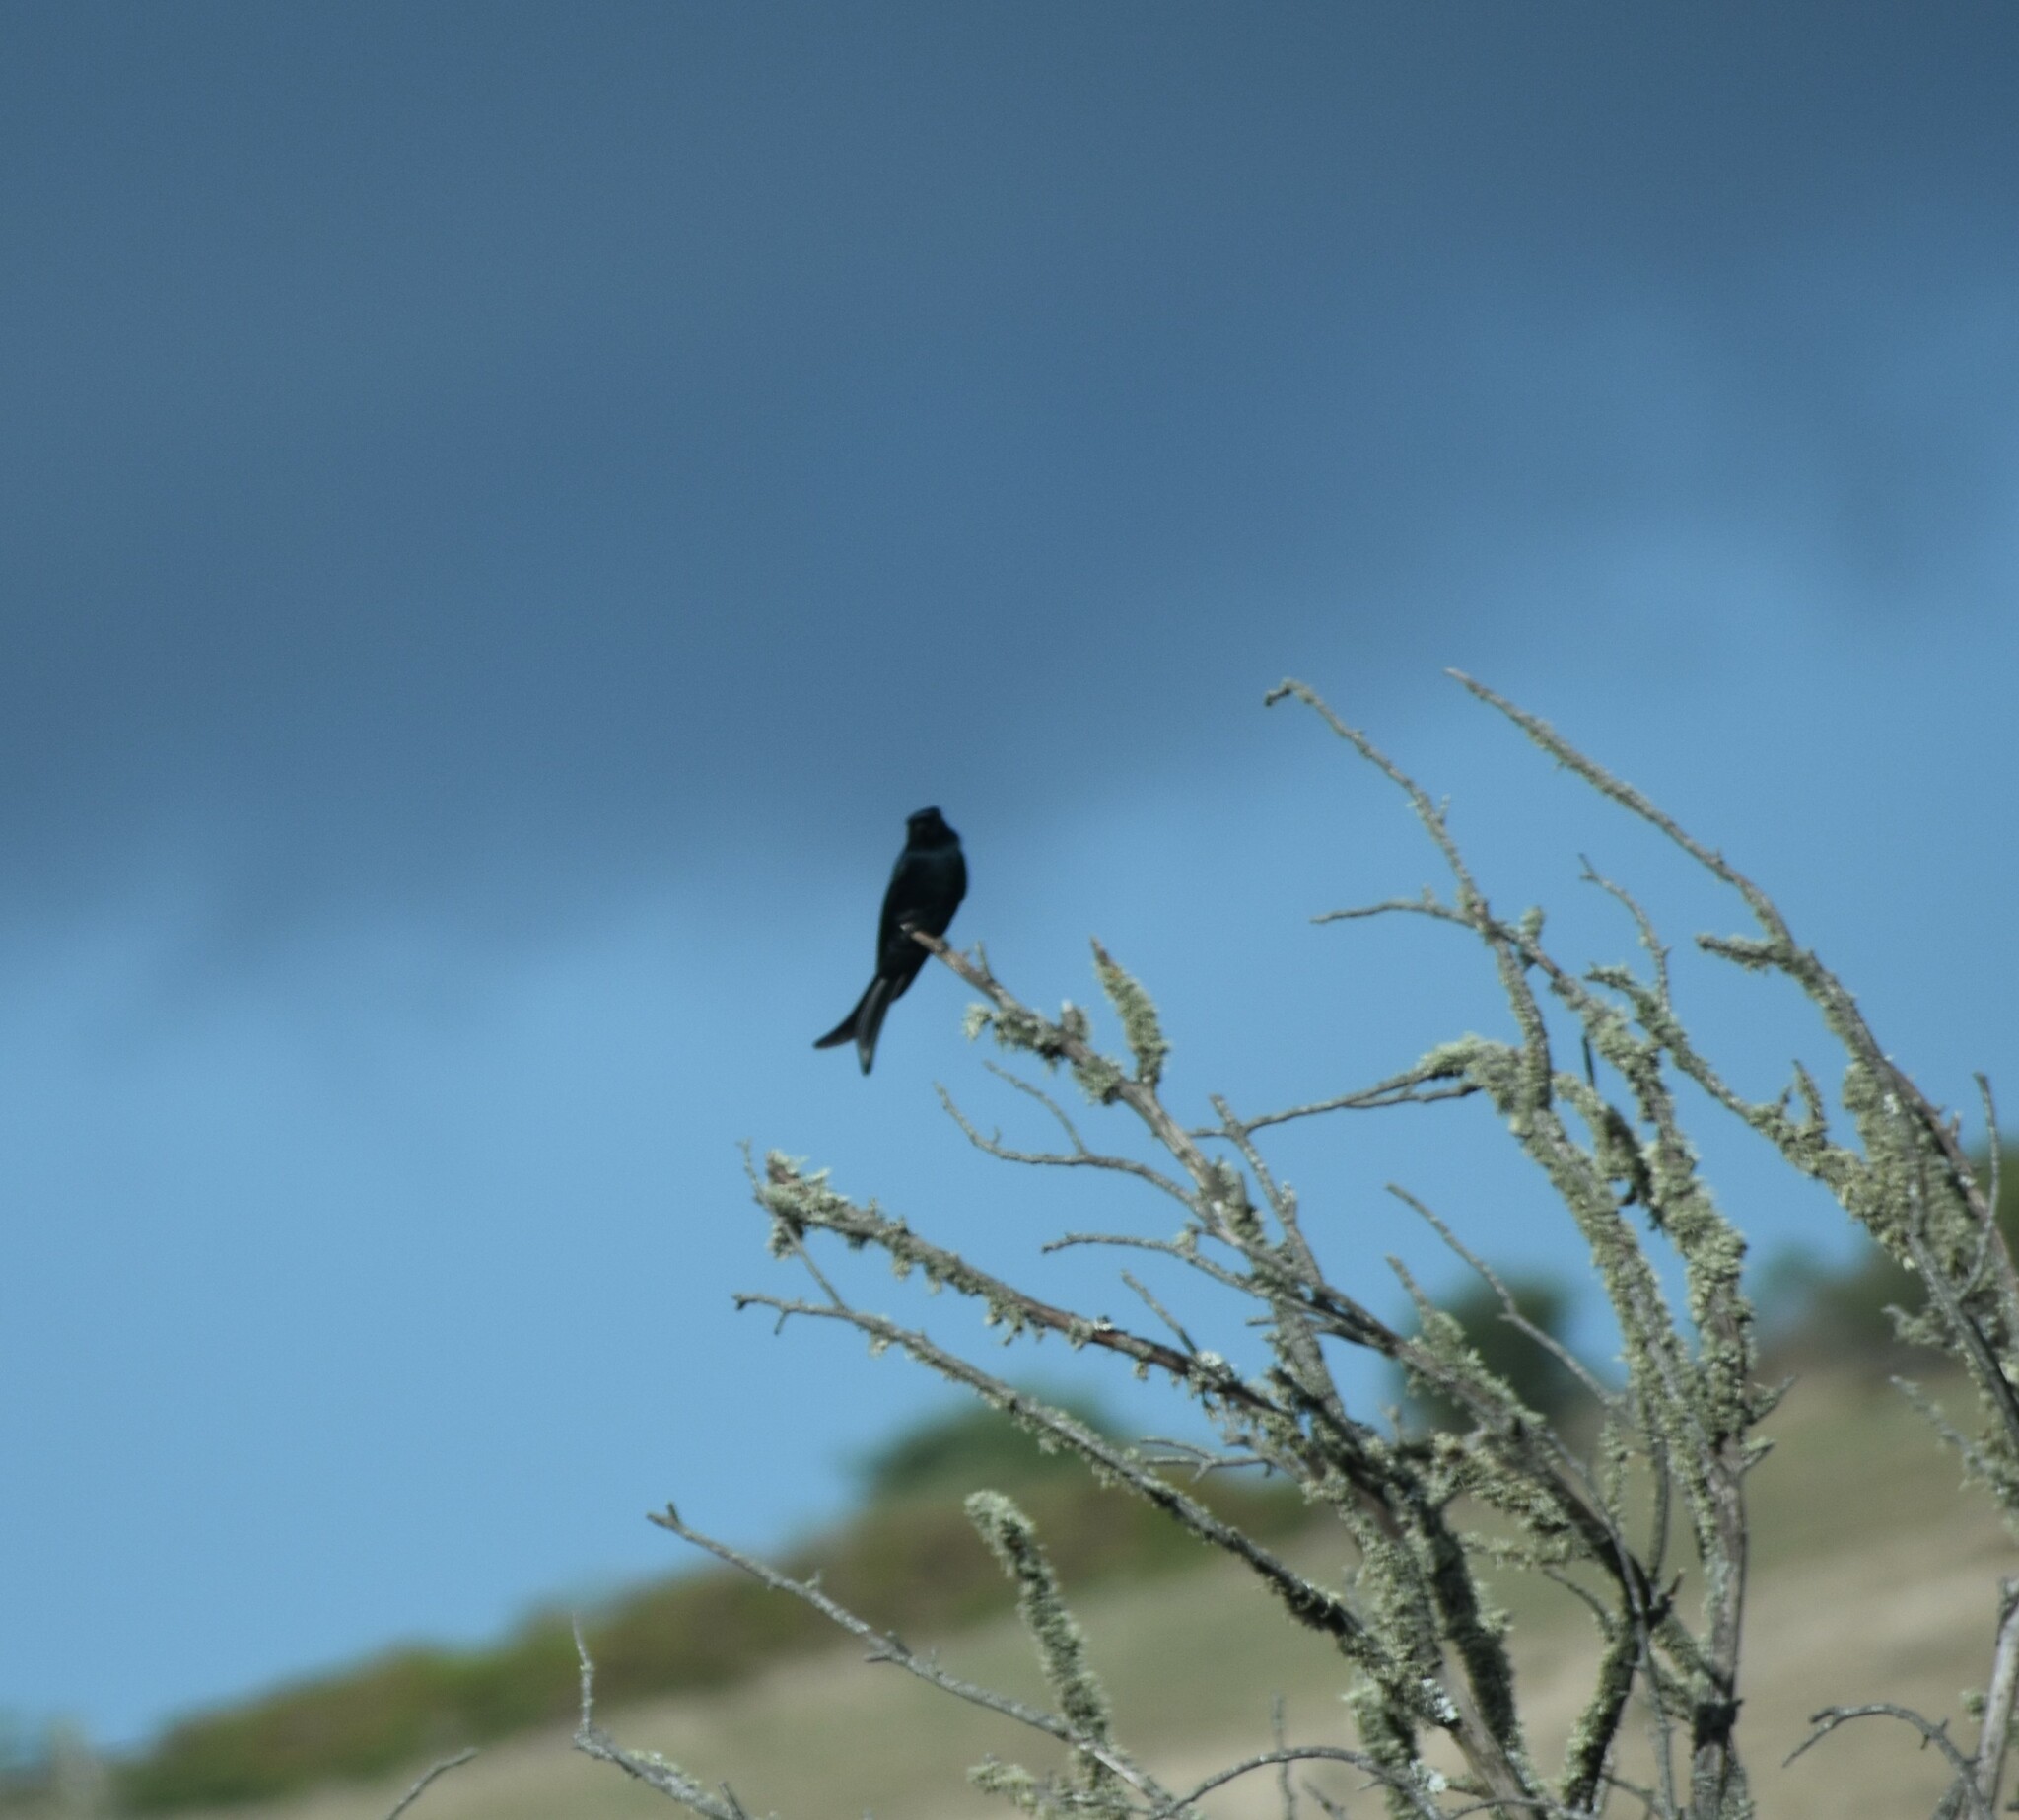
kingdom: Animalia
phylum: Chordata
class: Aves
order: Passeriformes
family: Dicruridae
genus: Dicrurus
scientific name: Dicrurus adsimilis
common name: Fork-tailed drongo
